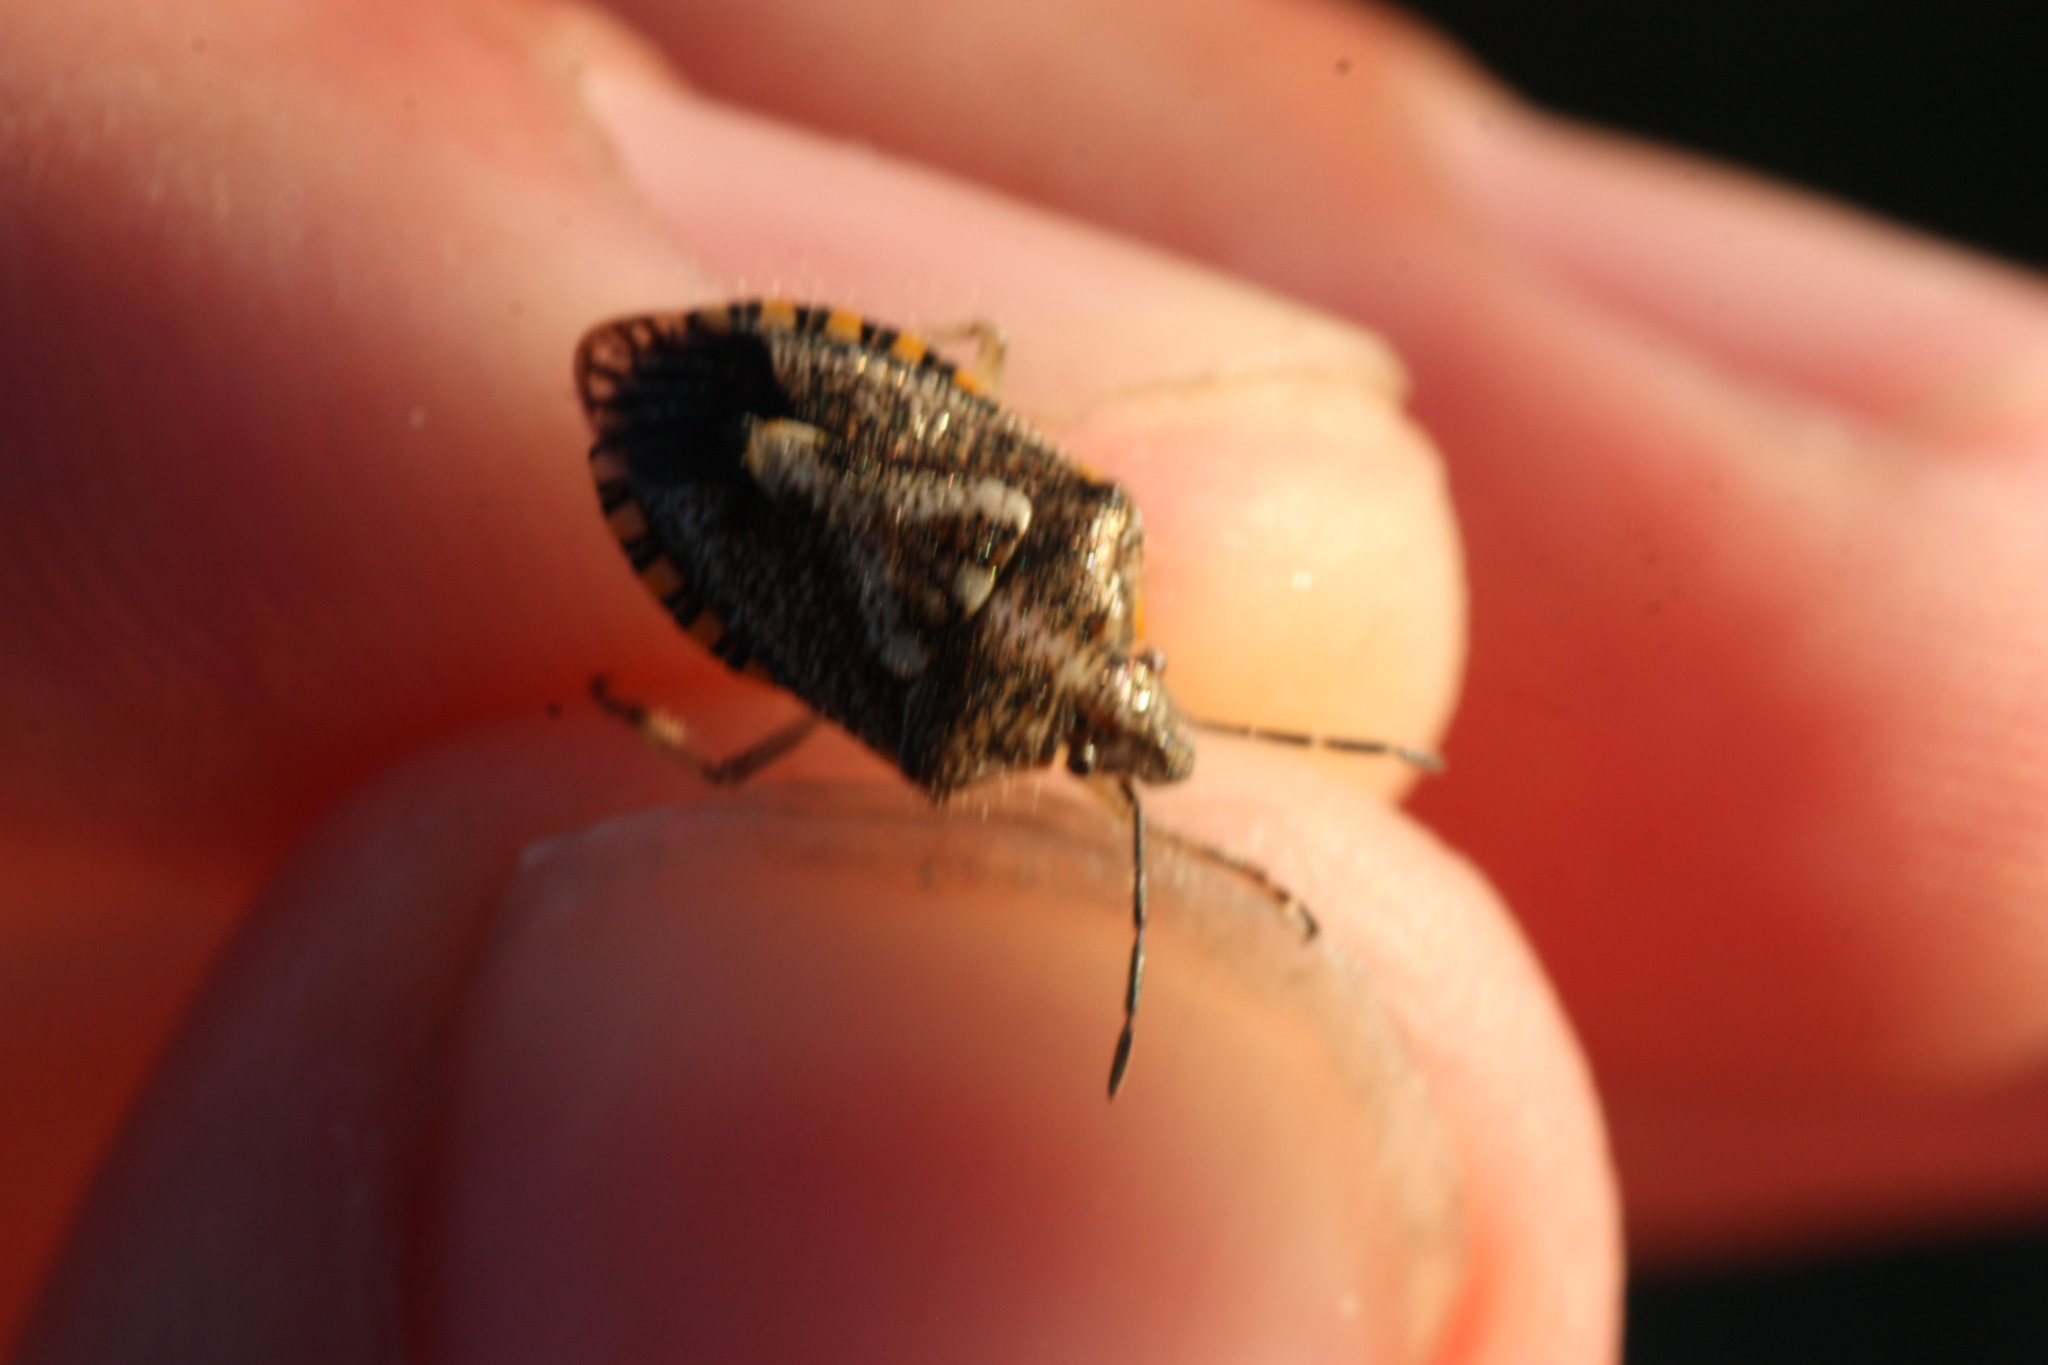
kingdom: Animalia
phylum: Arthropoda
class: Insecta
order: Hemiptera
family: Pentatomidae
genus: Agonoscelis
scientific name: Agonoscelis puberula
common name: African cluster bug
